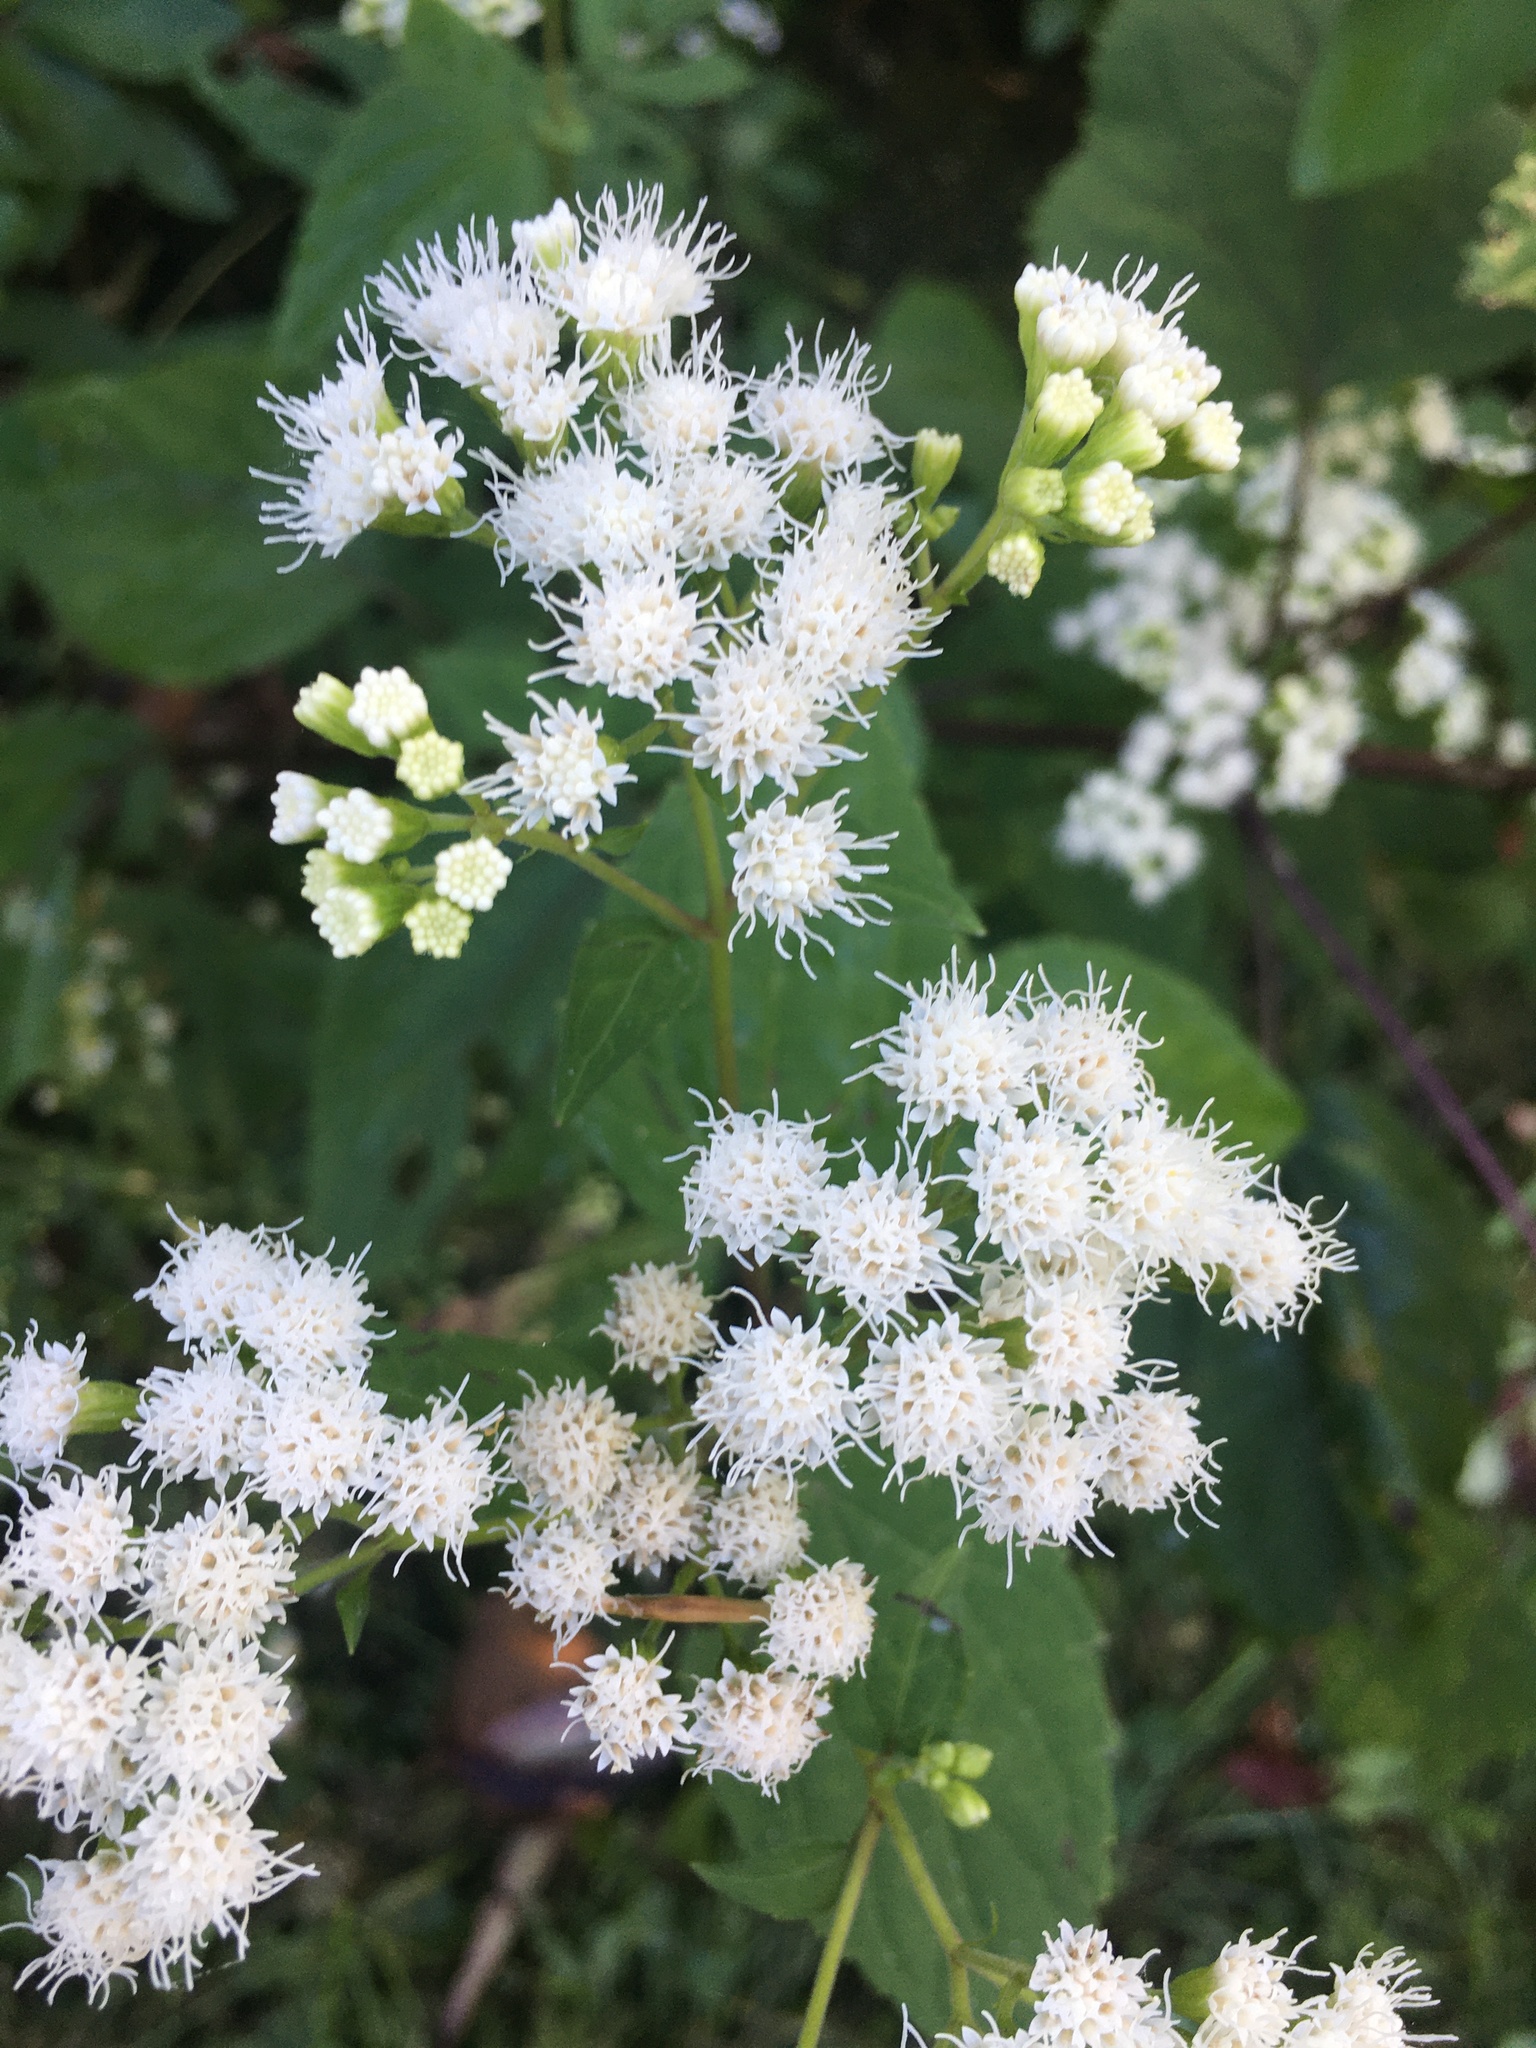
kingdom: Plantae
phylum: Tracheophyta
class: Magnoliopsida
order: Asterales
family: Asteraceae
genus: Ageratina
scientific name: Ageratina altissima
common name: White snakeroot
